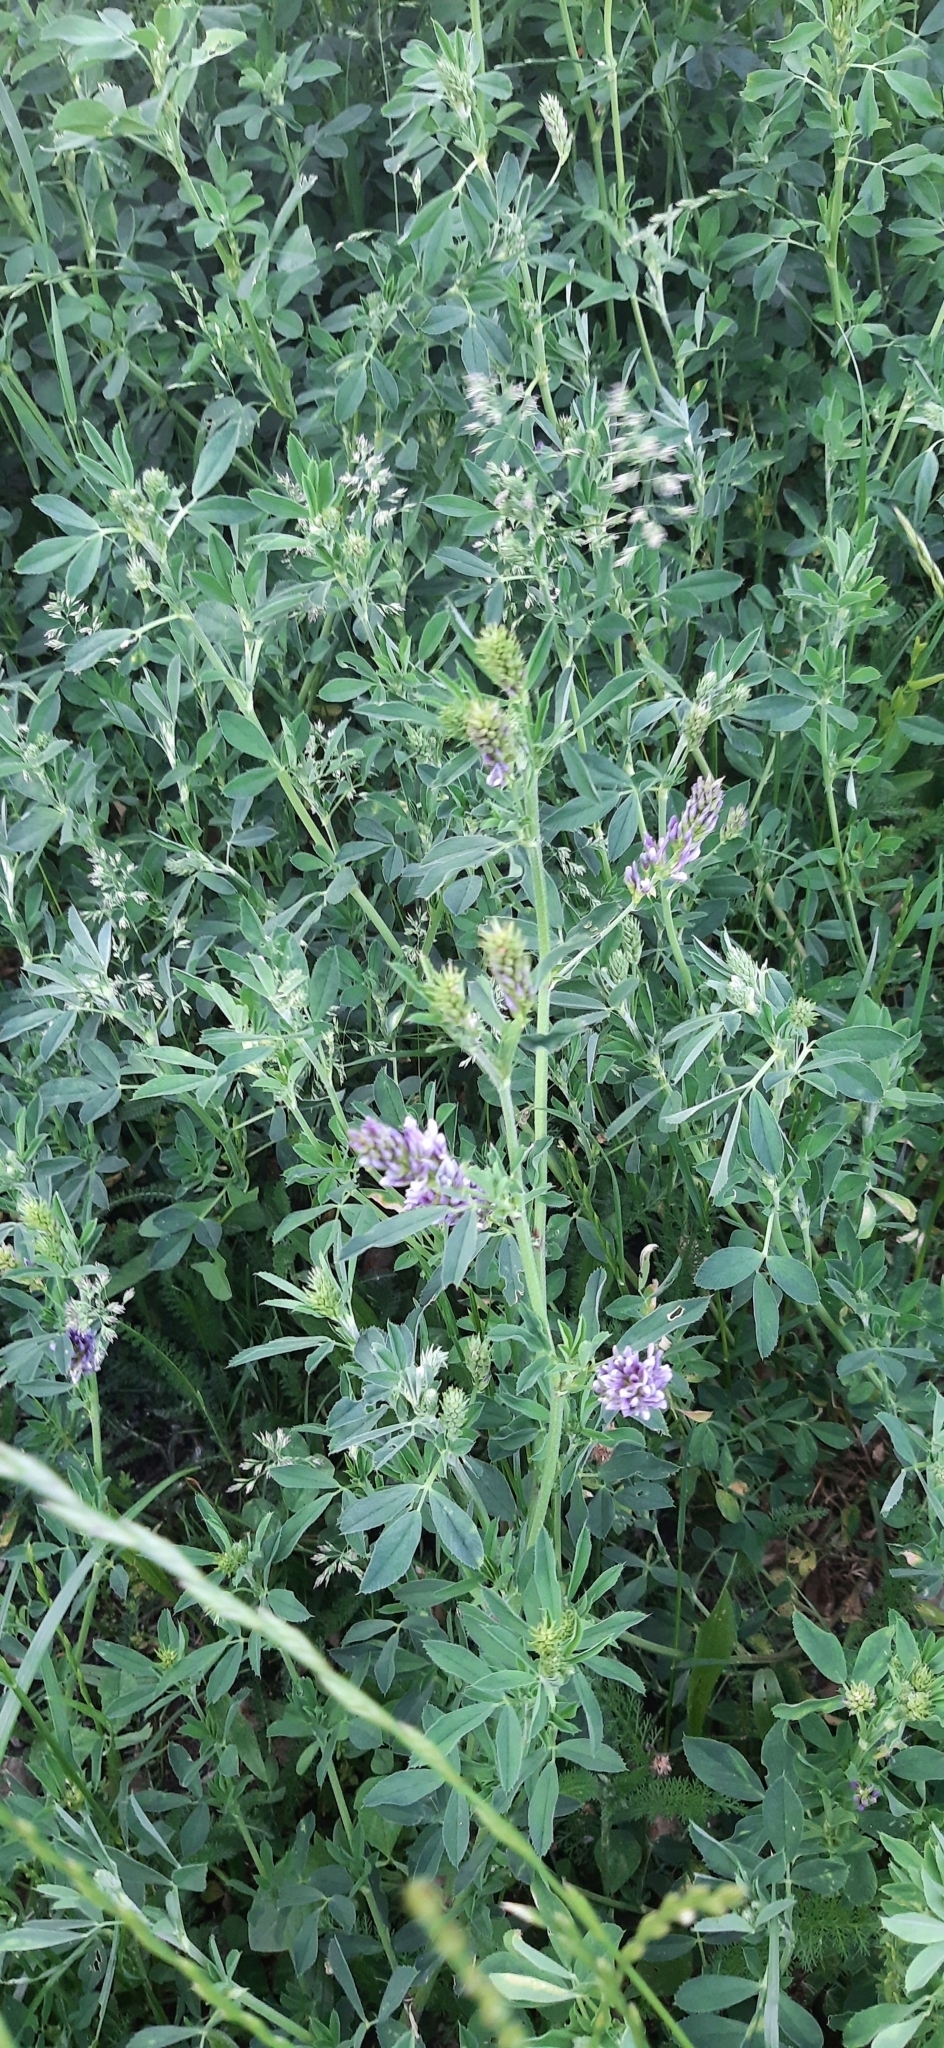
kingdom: Plantae
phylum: Tracheophyta
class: Magnoliopsida
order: Fabales
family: Fabaceae
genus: Medicago
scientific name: Medicago sativa
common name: Alfalfa
